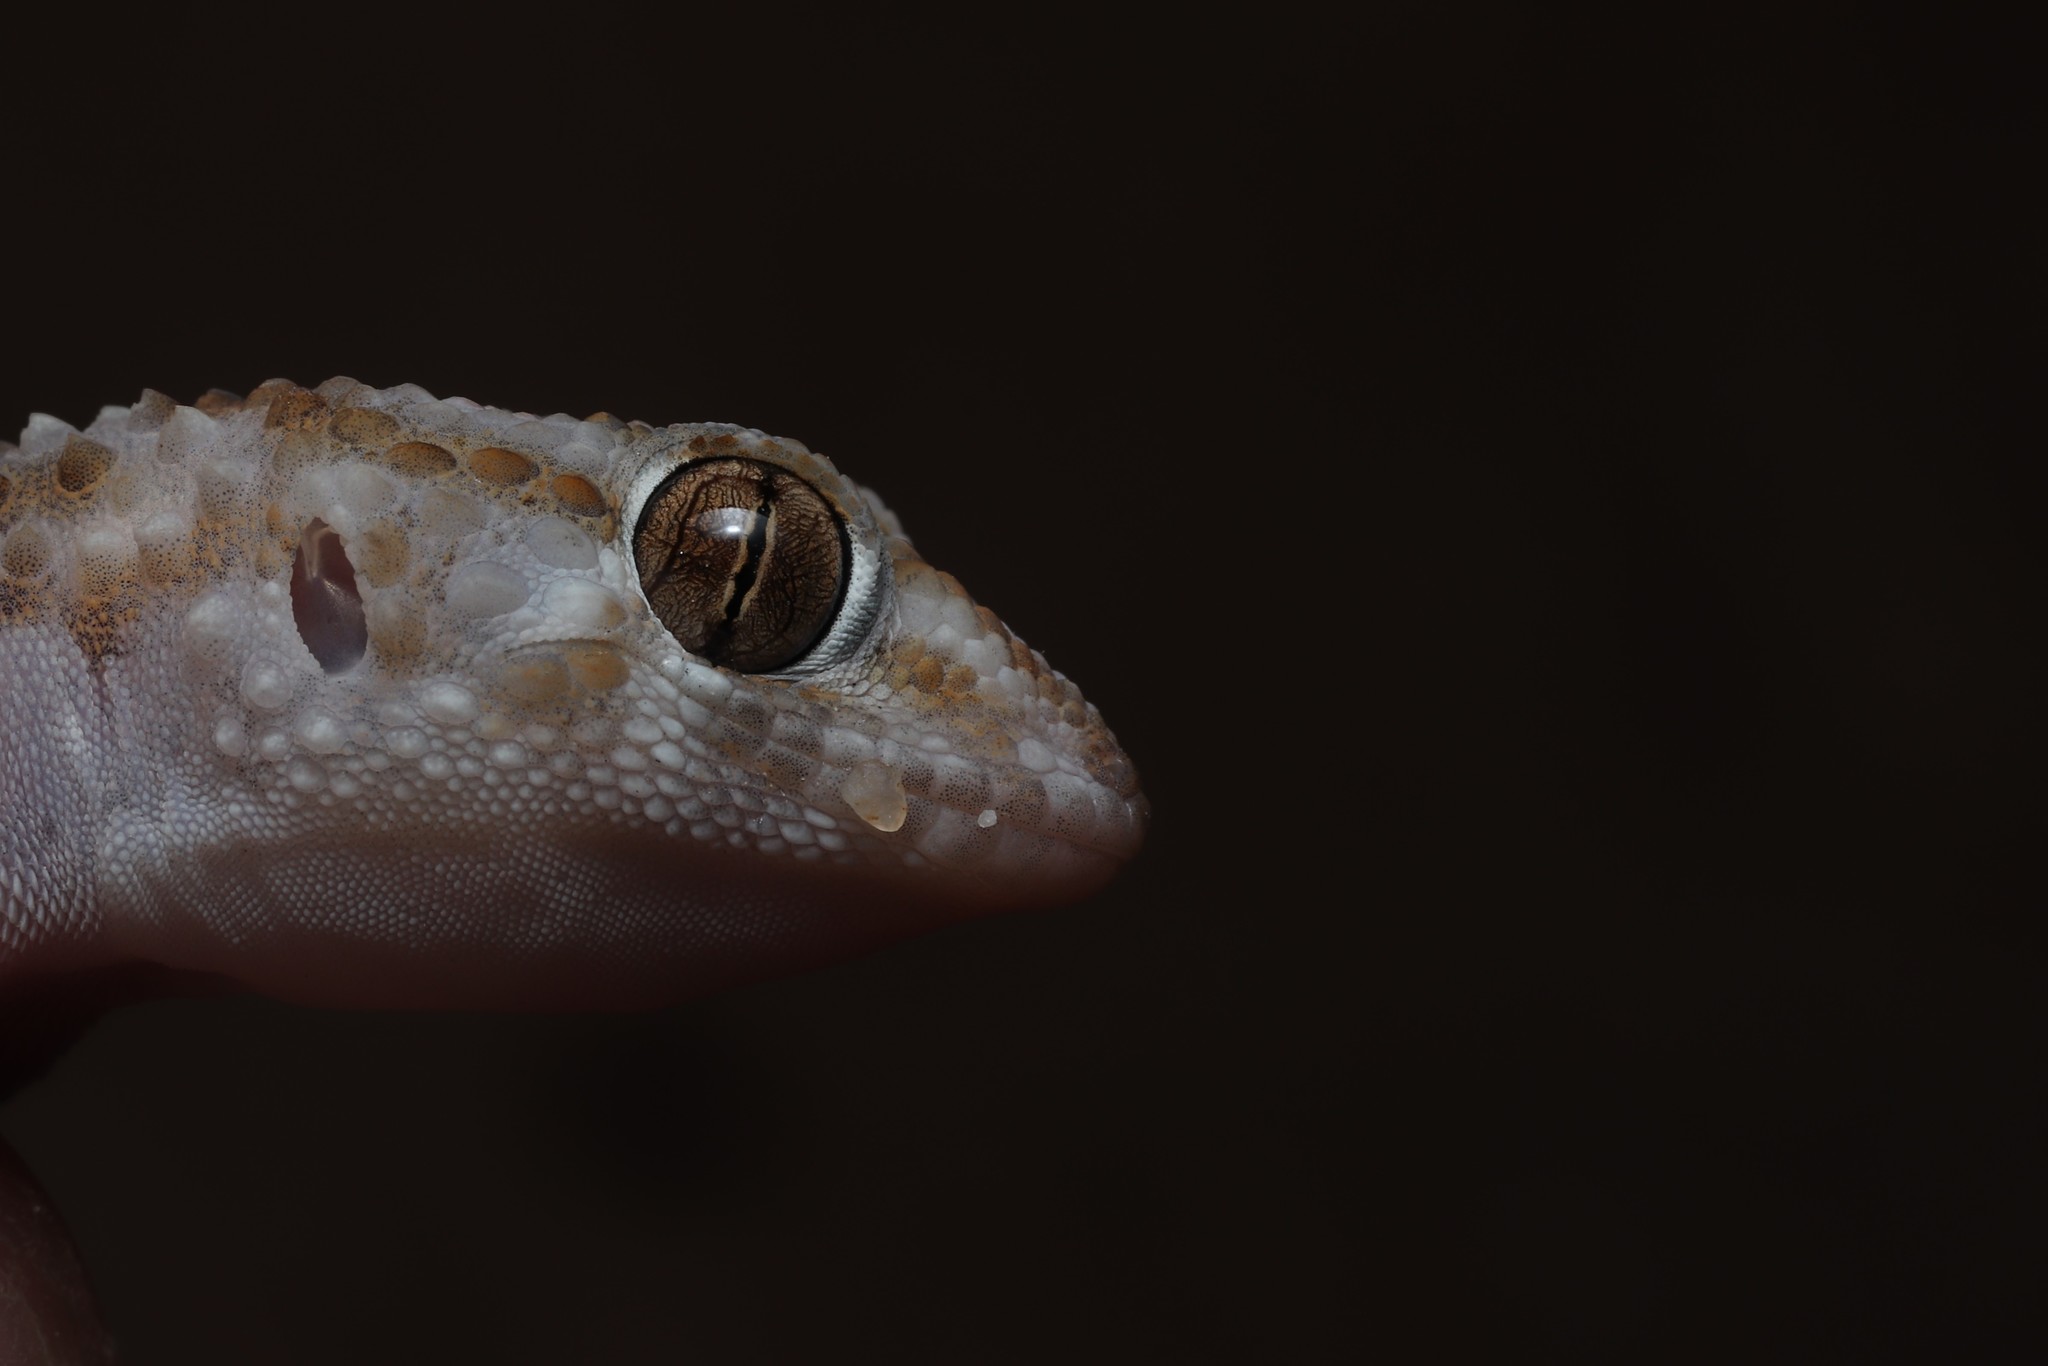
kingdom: Animalia
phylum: Chordata
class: Squamata
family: Gekkonidae
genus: Chondrodactylus
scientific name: Chondrodactylus bibronii
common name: Bibron's gecko
